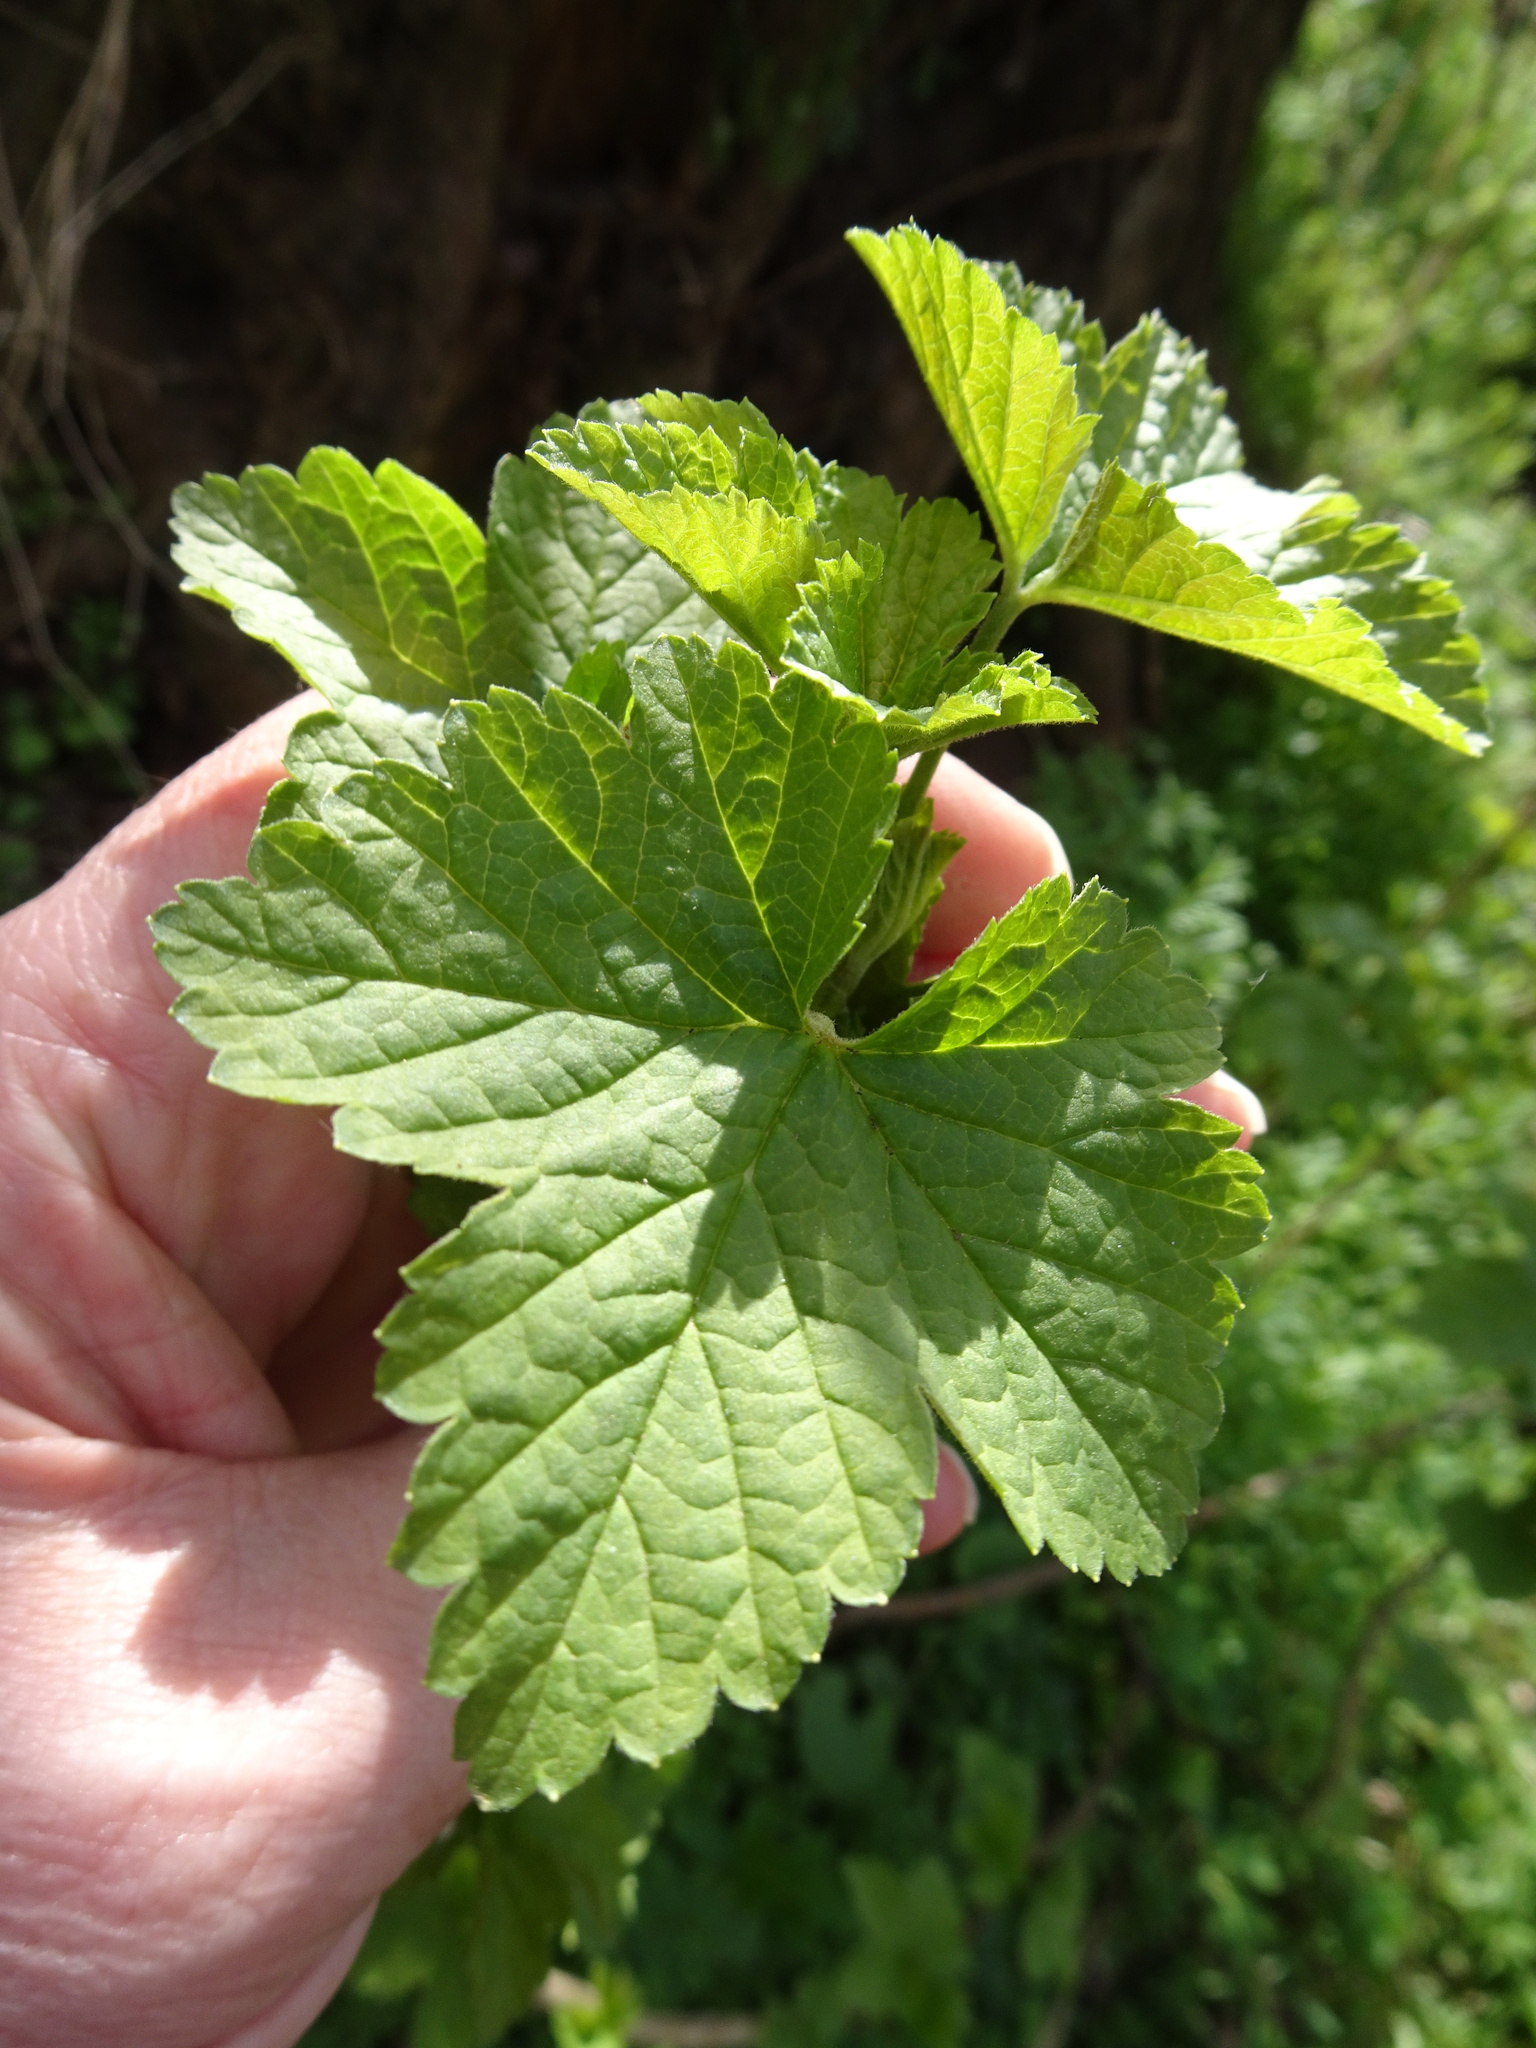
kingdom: Plantae
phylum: Tracheophyta
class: Magnoliopsida
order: Saxifragales
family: Grossulariaceae
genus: Ribes
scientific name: Ribes rubrum
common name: Red currant
